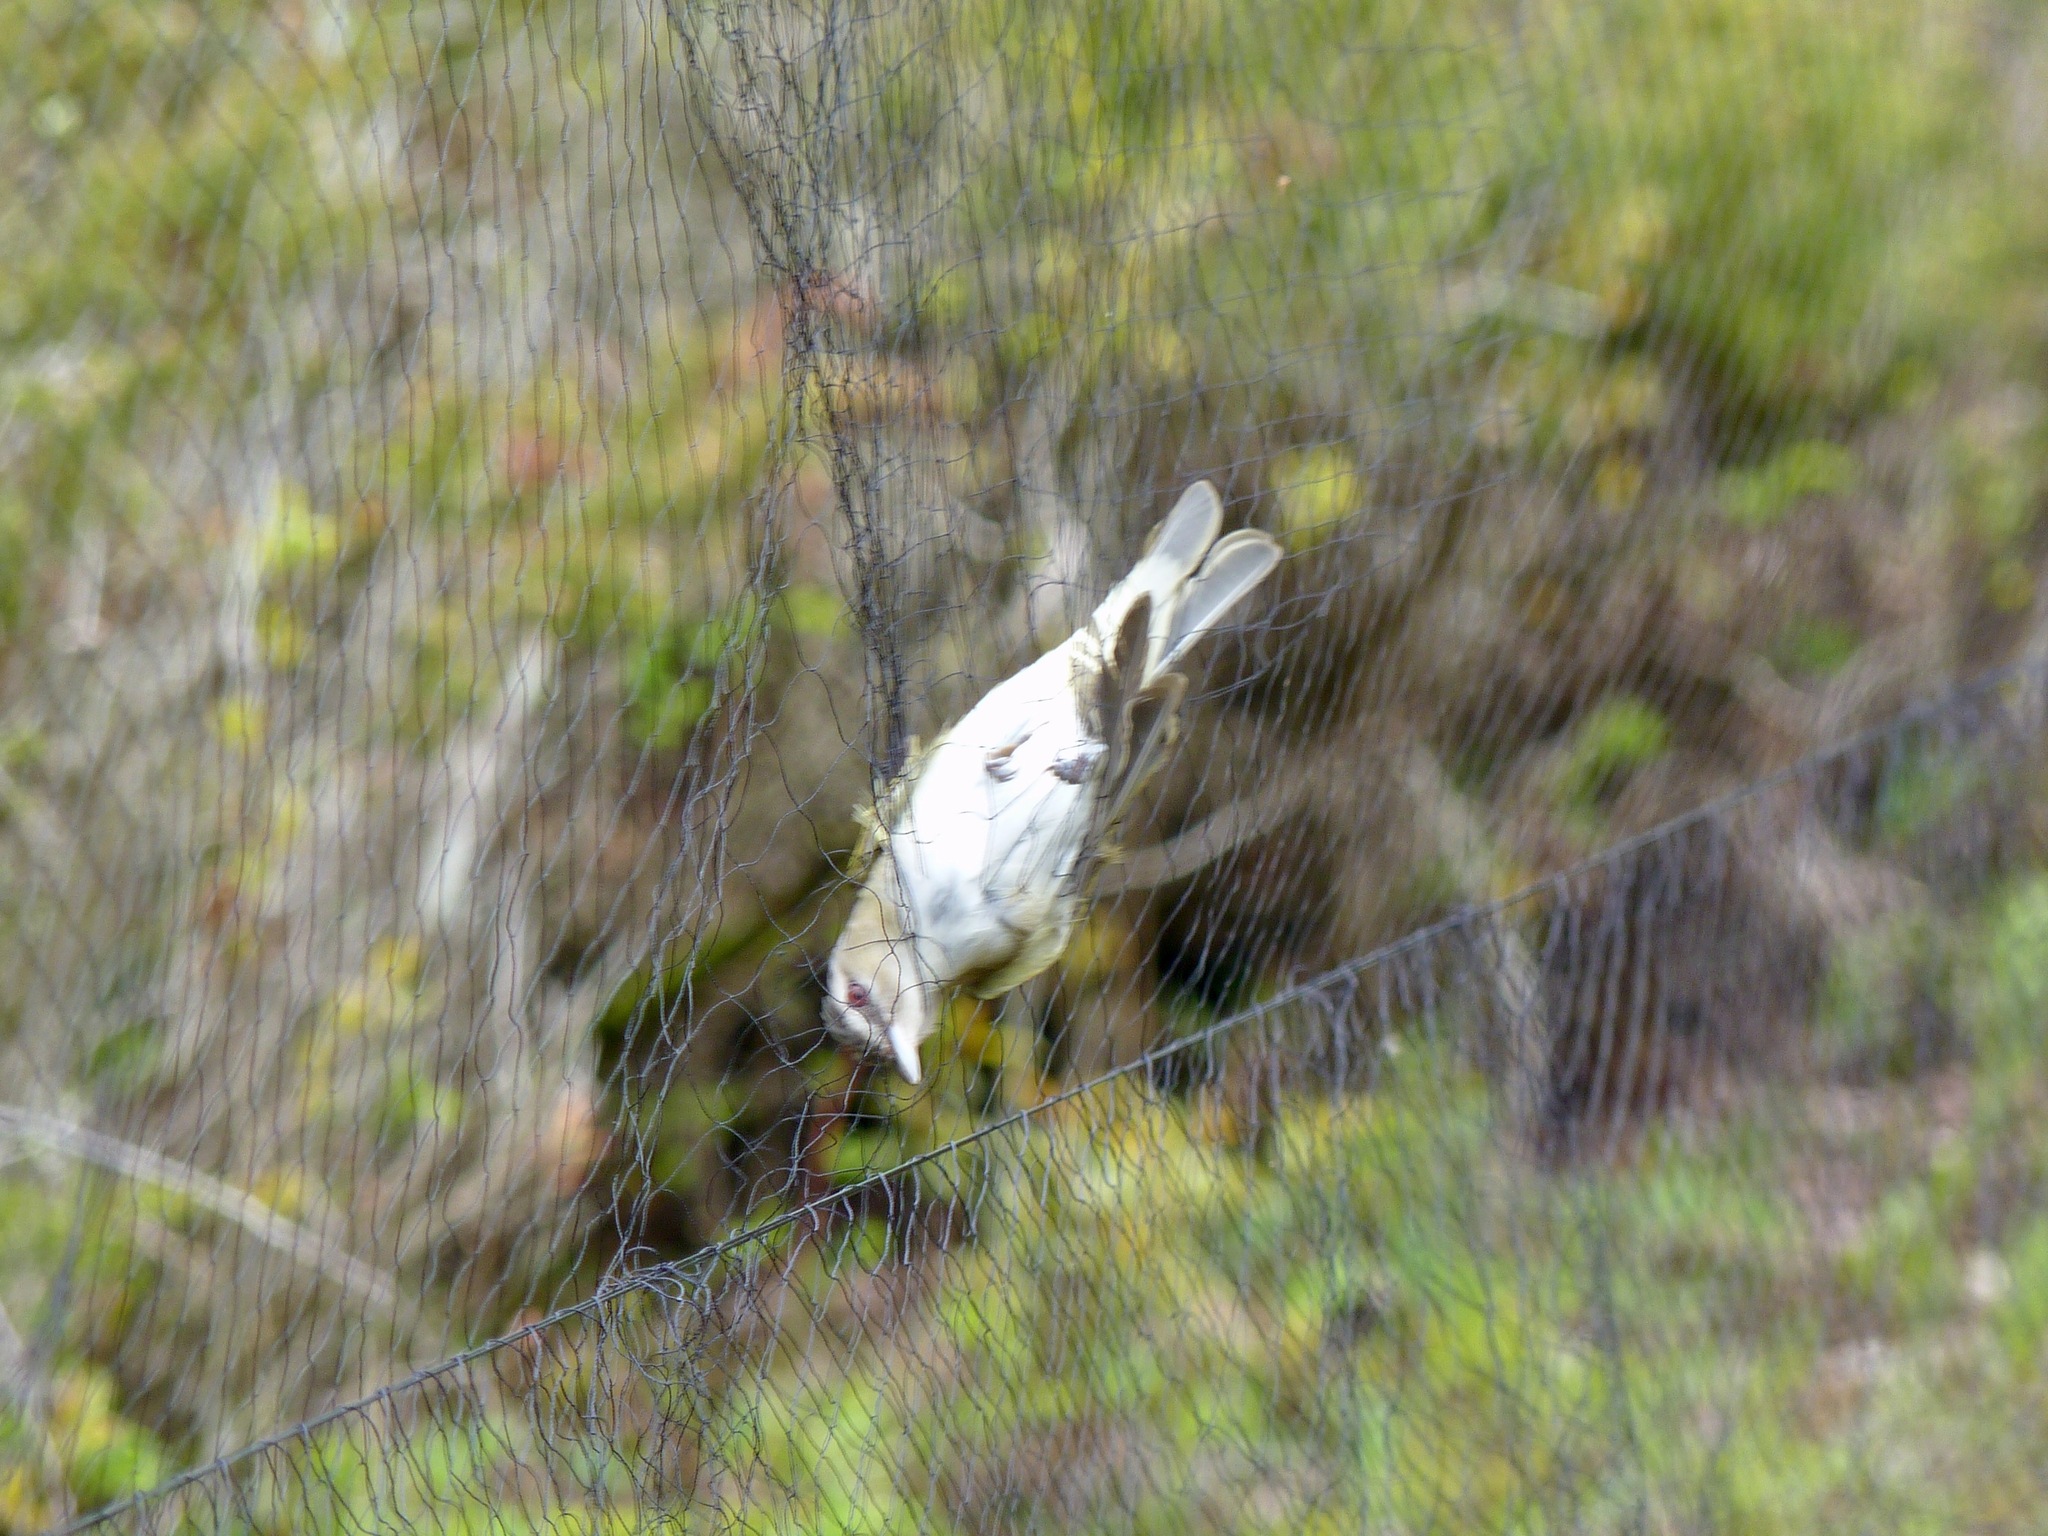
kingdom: Animalia
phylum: Chordata
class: Aves
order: Passeriformes
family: Vireonidae
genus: Vireo
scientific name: Vireo olivaceus
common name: Red-eyed vireo
